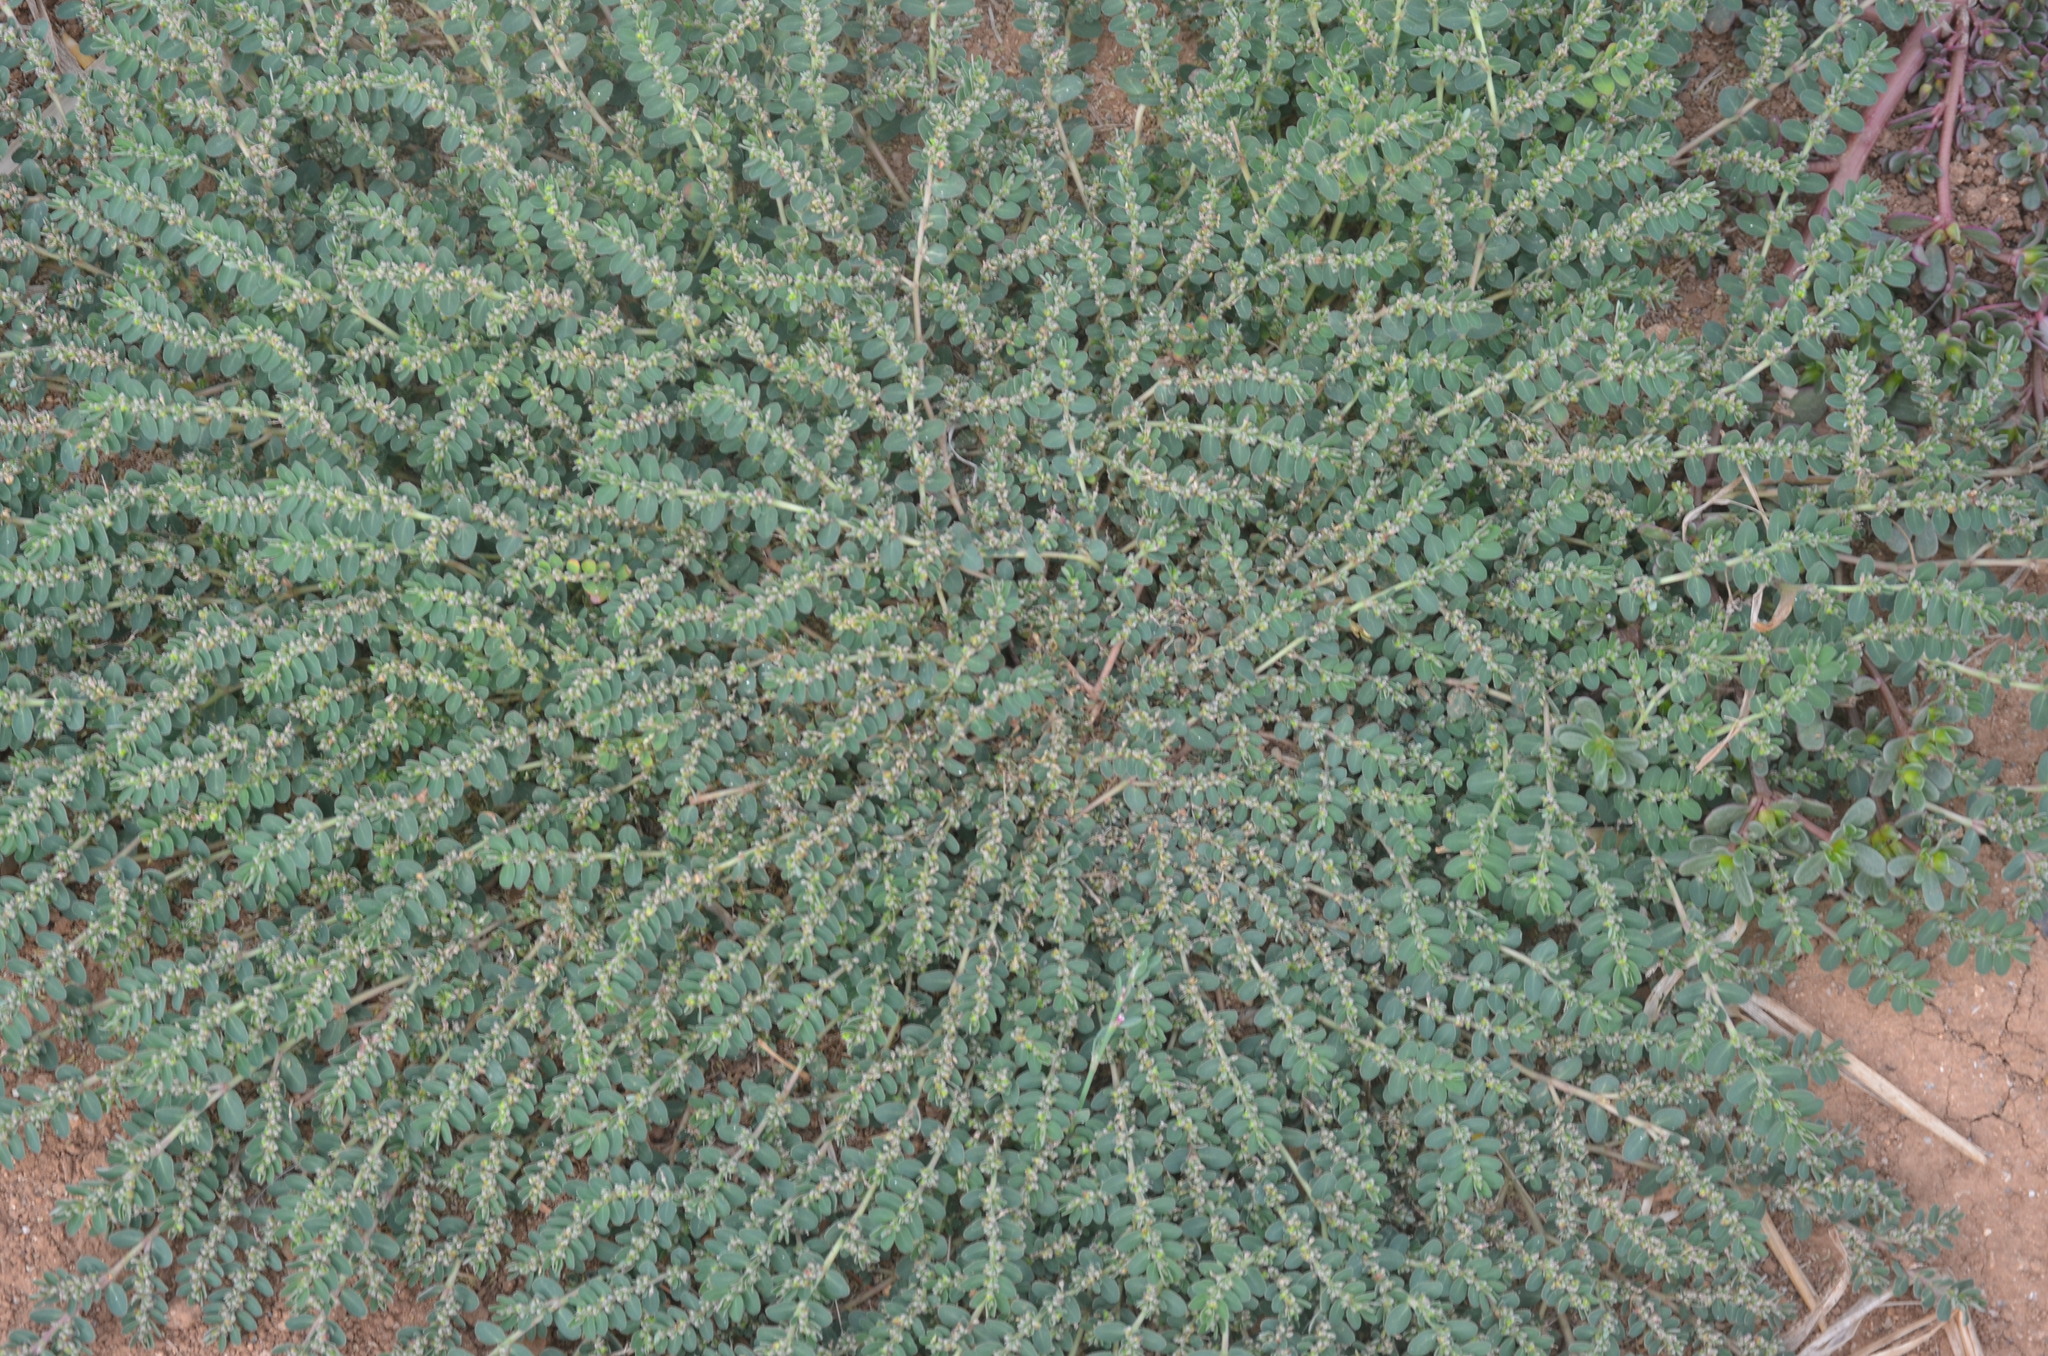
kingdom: Plantae
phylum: Tracheophyta
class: Magnoliopsida
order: Malpighiales
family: Euphorbiaceae
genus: Euphorbia
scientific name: Euphorbia prostrata
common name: Prostrate sandmat
